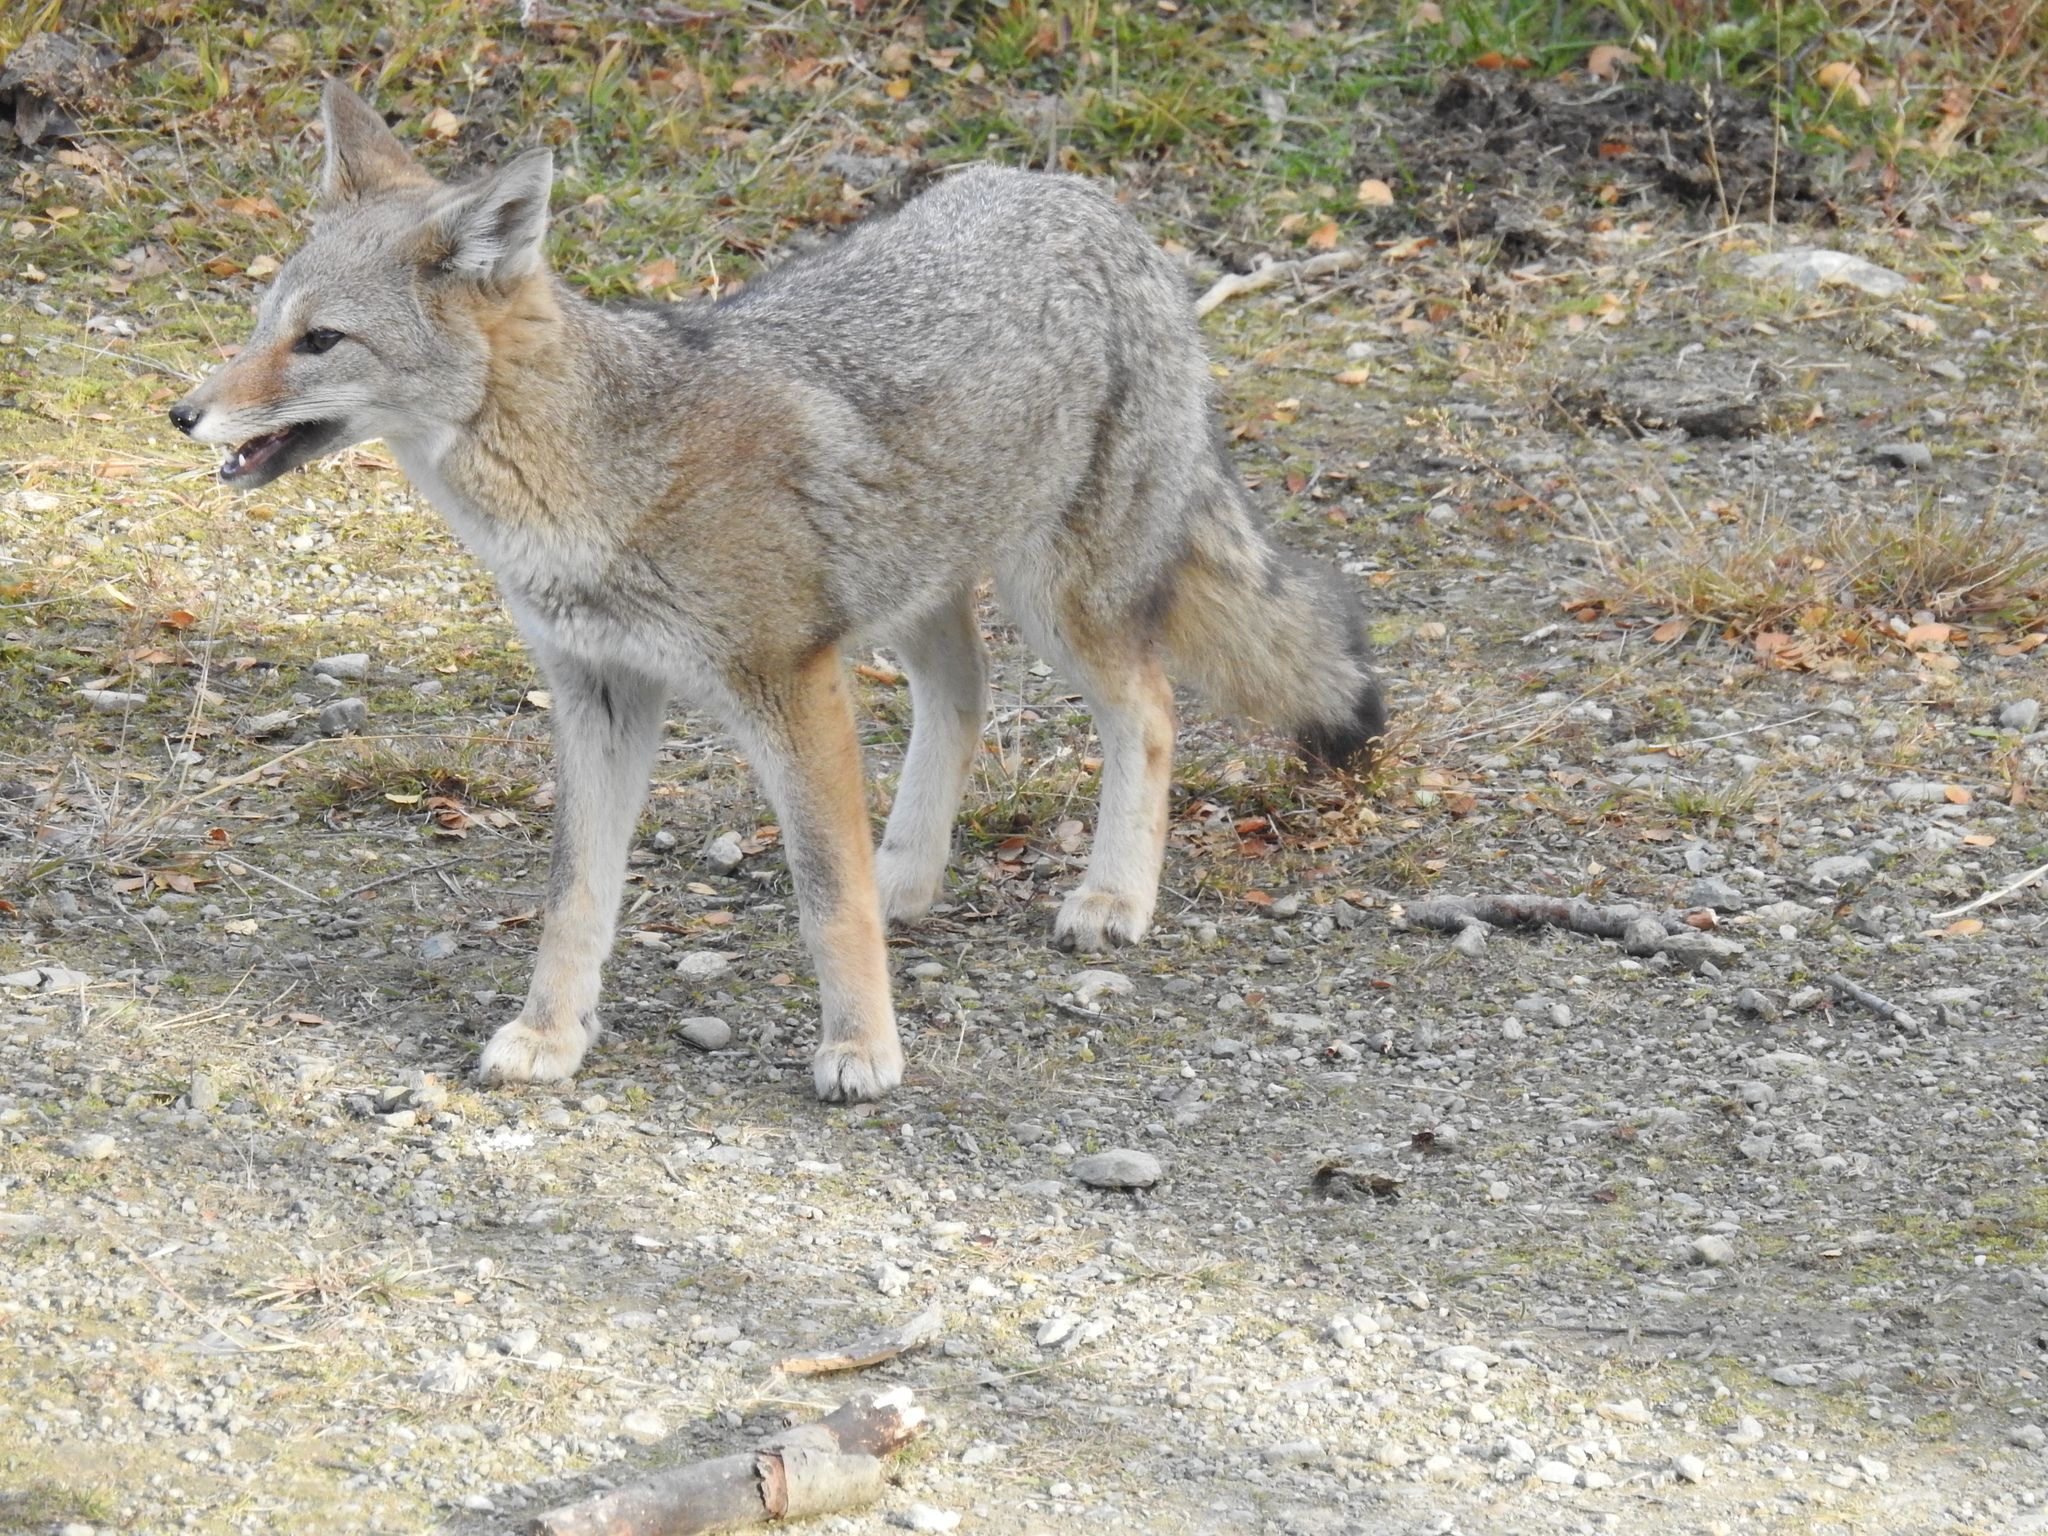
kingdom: Animalia
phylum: Chordata
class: Mammalia
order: Carnivora
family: Canidae
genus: Lycalopex
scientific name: Lycalopex gymnocercus
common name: Pampas fox
